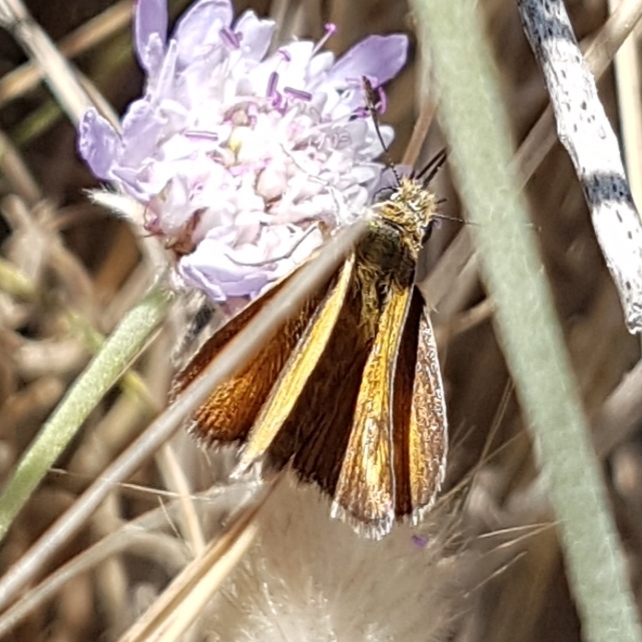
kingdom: Animalia
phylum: Arthropoda
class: Insecta
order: Lepidoptera
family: Hesperiidae
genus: Thymelicus
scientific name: Thymelicus acteon
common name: Lulworth skipper
